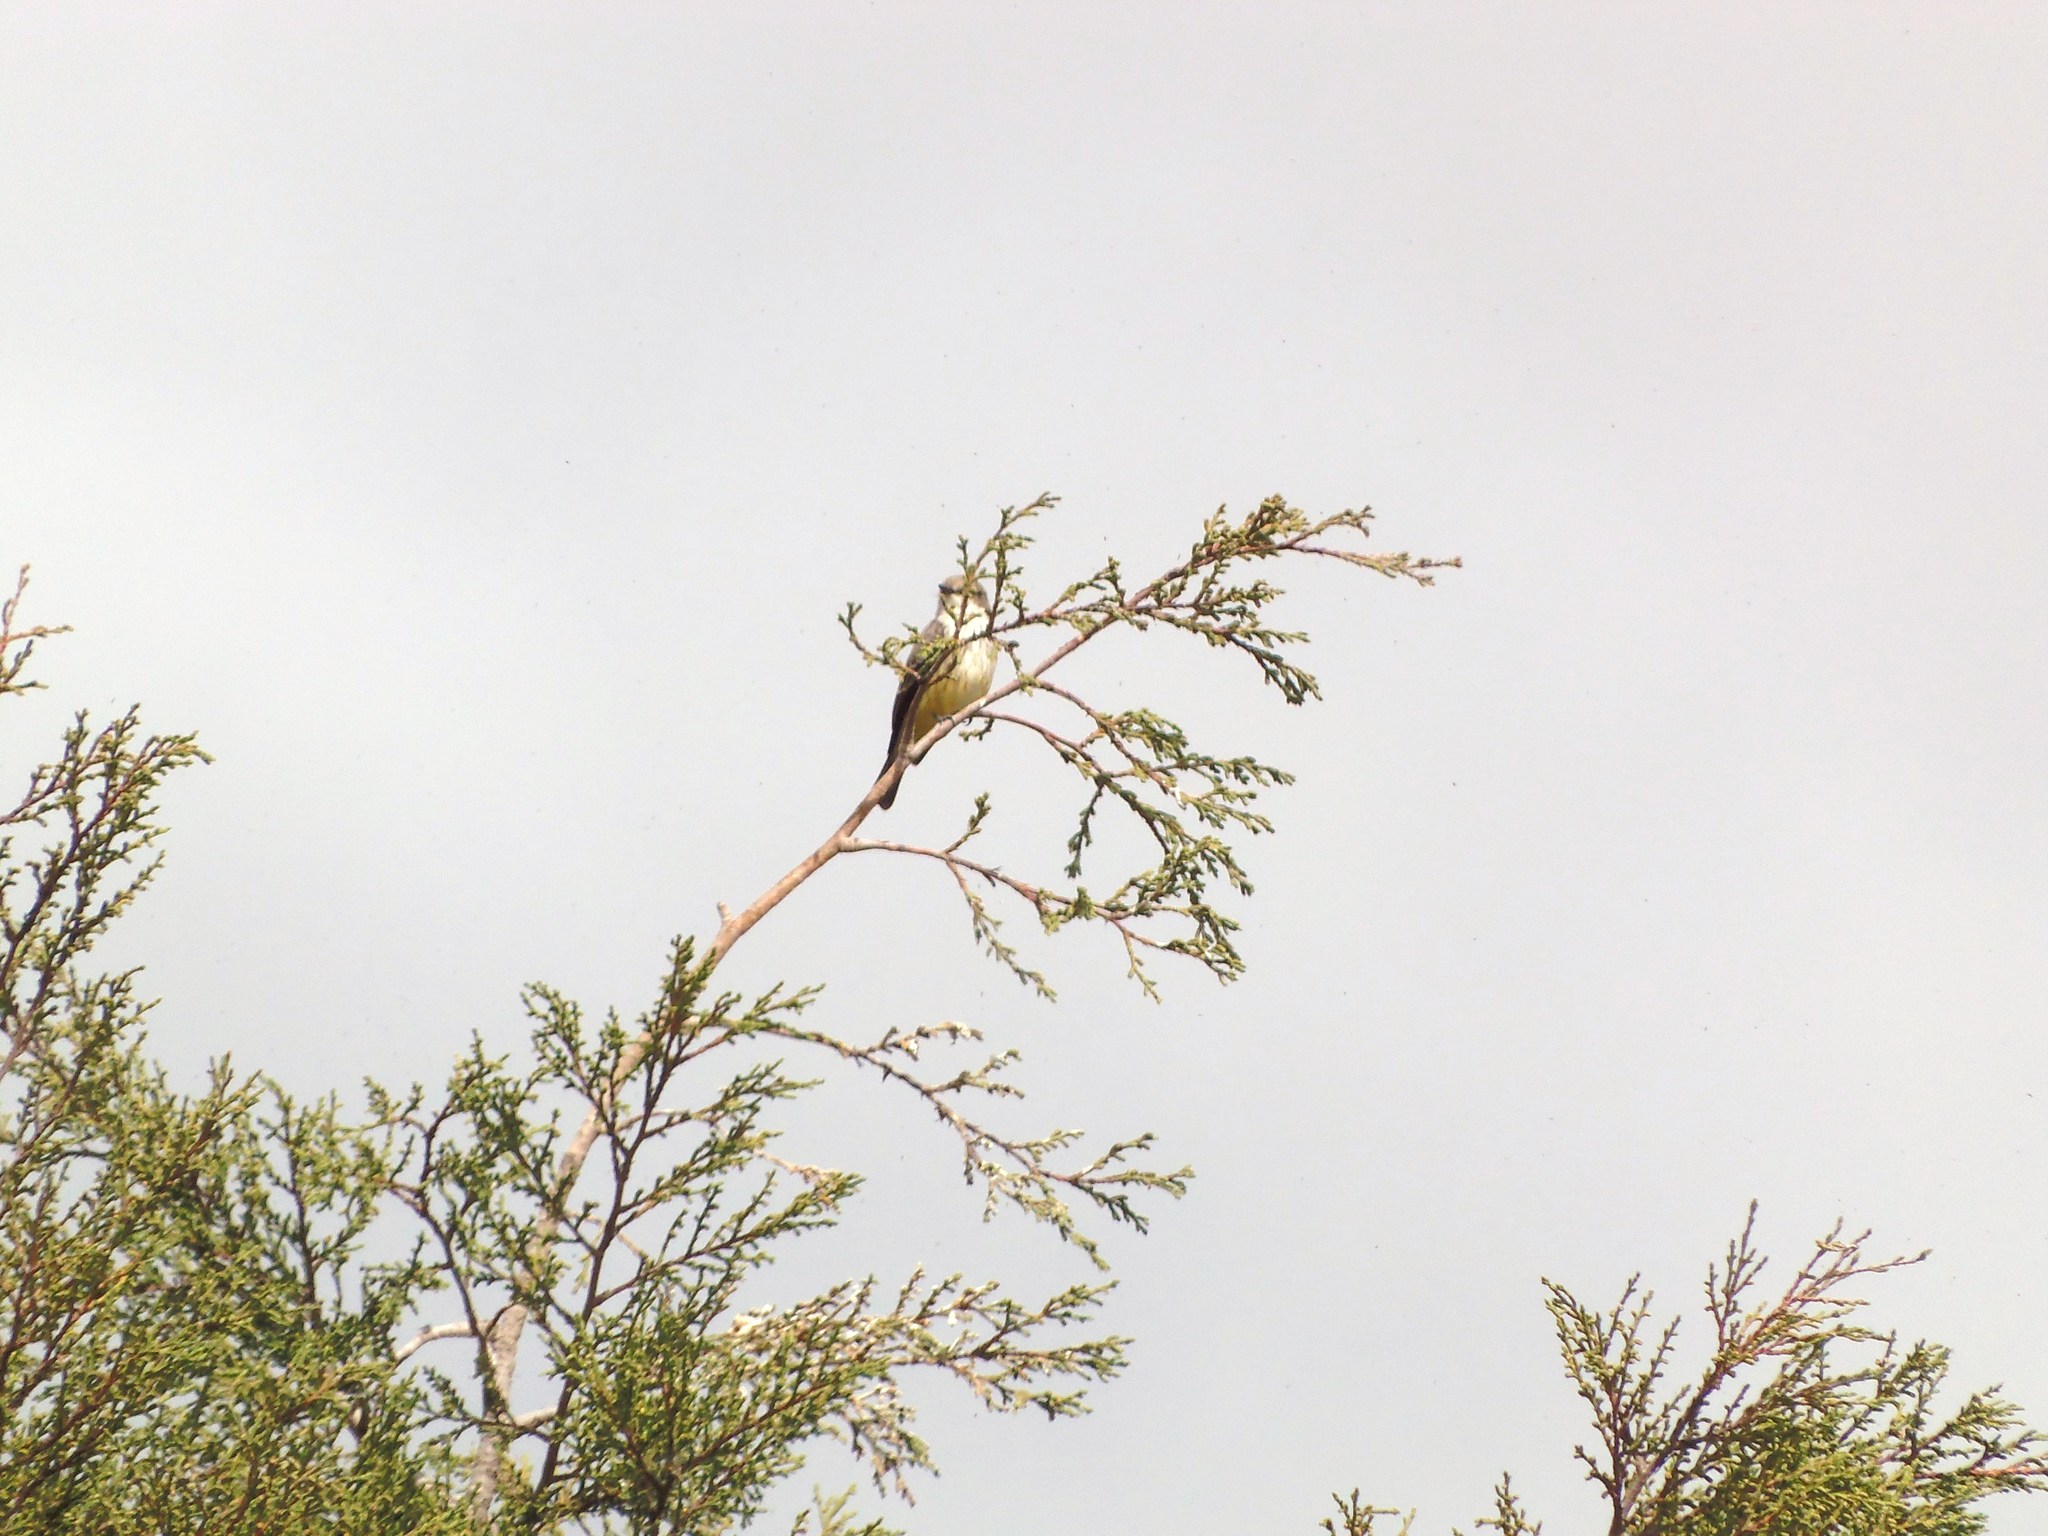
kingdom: Animalia
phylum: Chordata
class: Aves
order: Passeriformes
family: Tyrannidae
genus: Pyrocephalus
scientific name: Pyrocephalus rubinus
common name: Vermilion flycatcher
